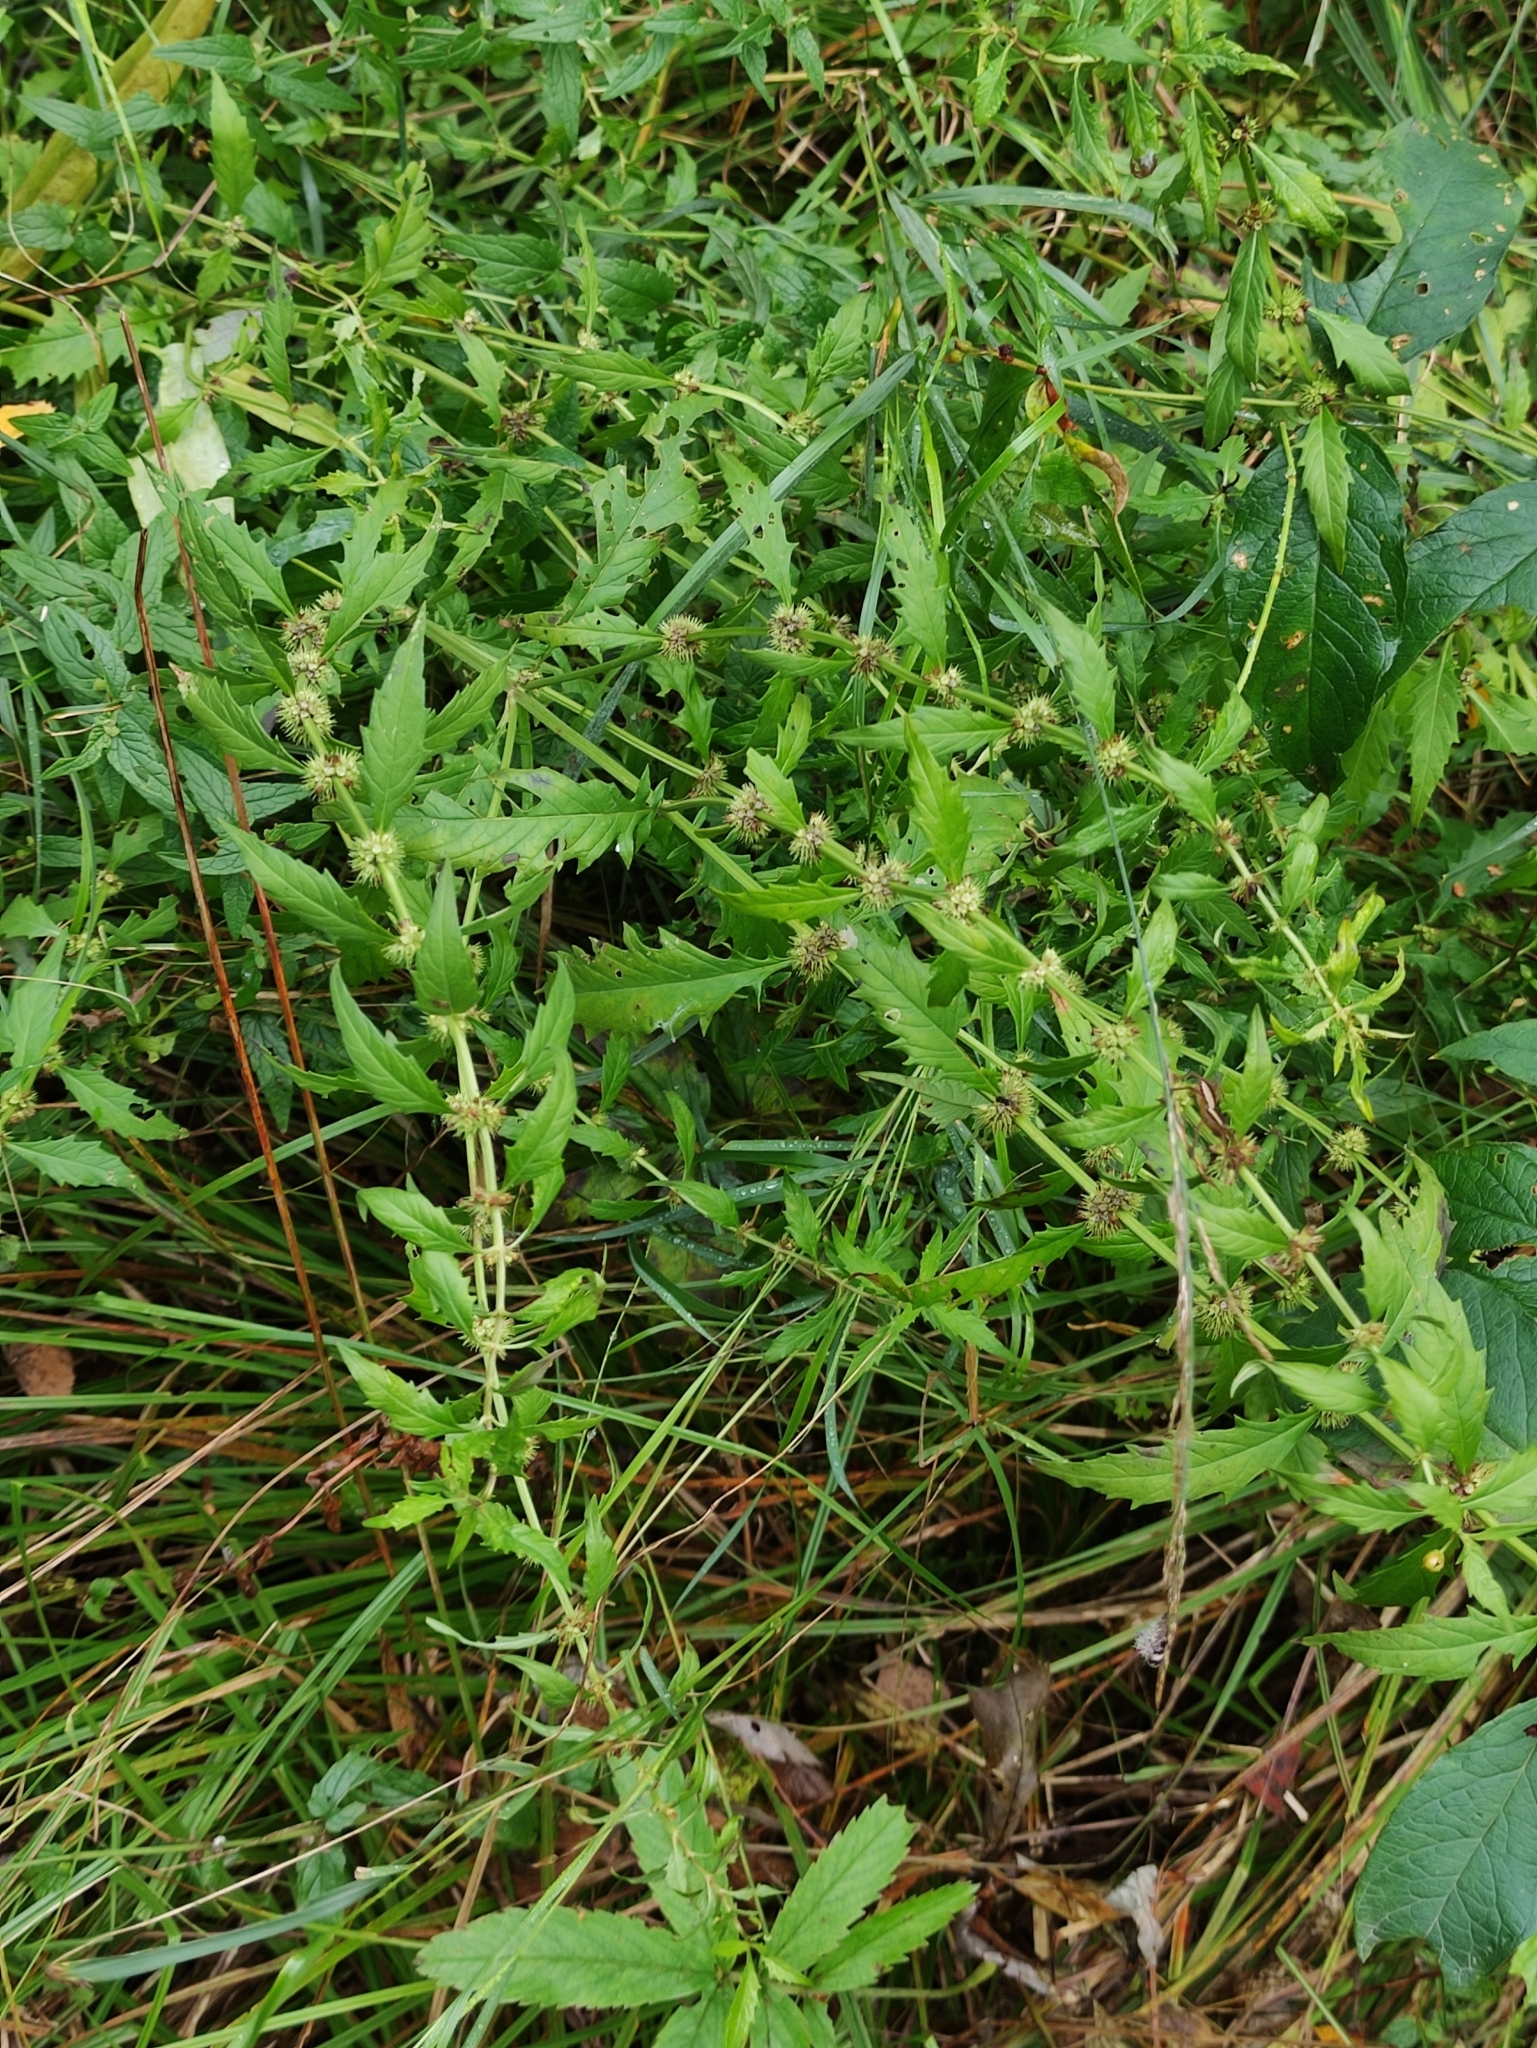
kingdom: Plantae
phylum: Tracheophyta
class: Magnoliopsida
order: Lamiales
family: Lamiaceae
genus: Lycopus
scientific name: Lycopus europaeus
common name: European bugleweed
